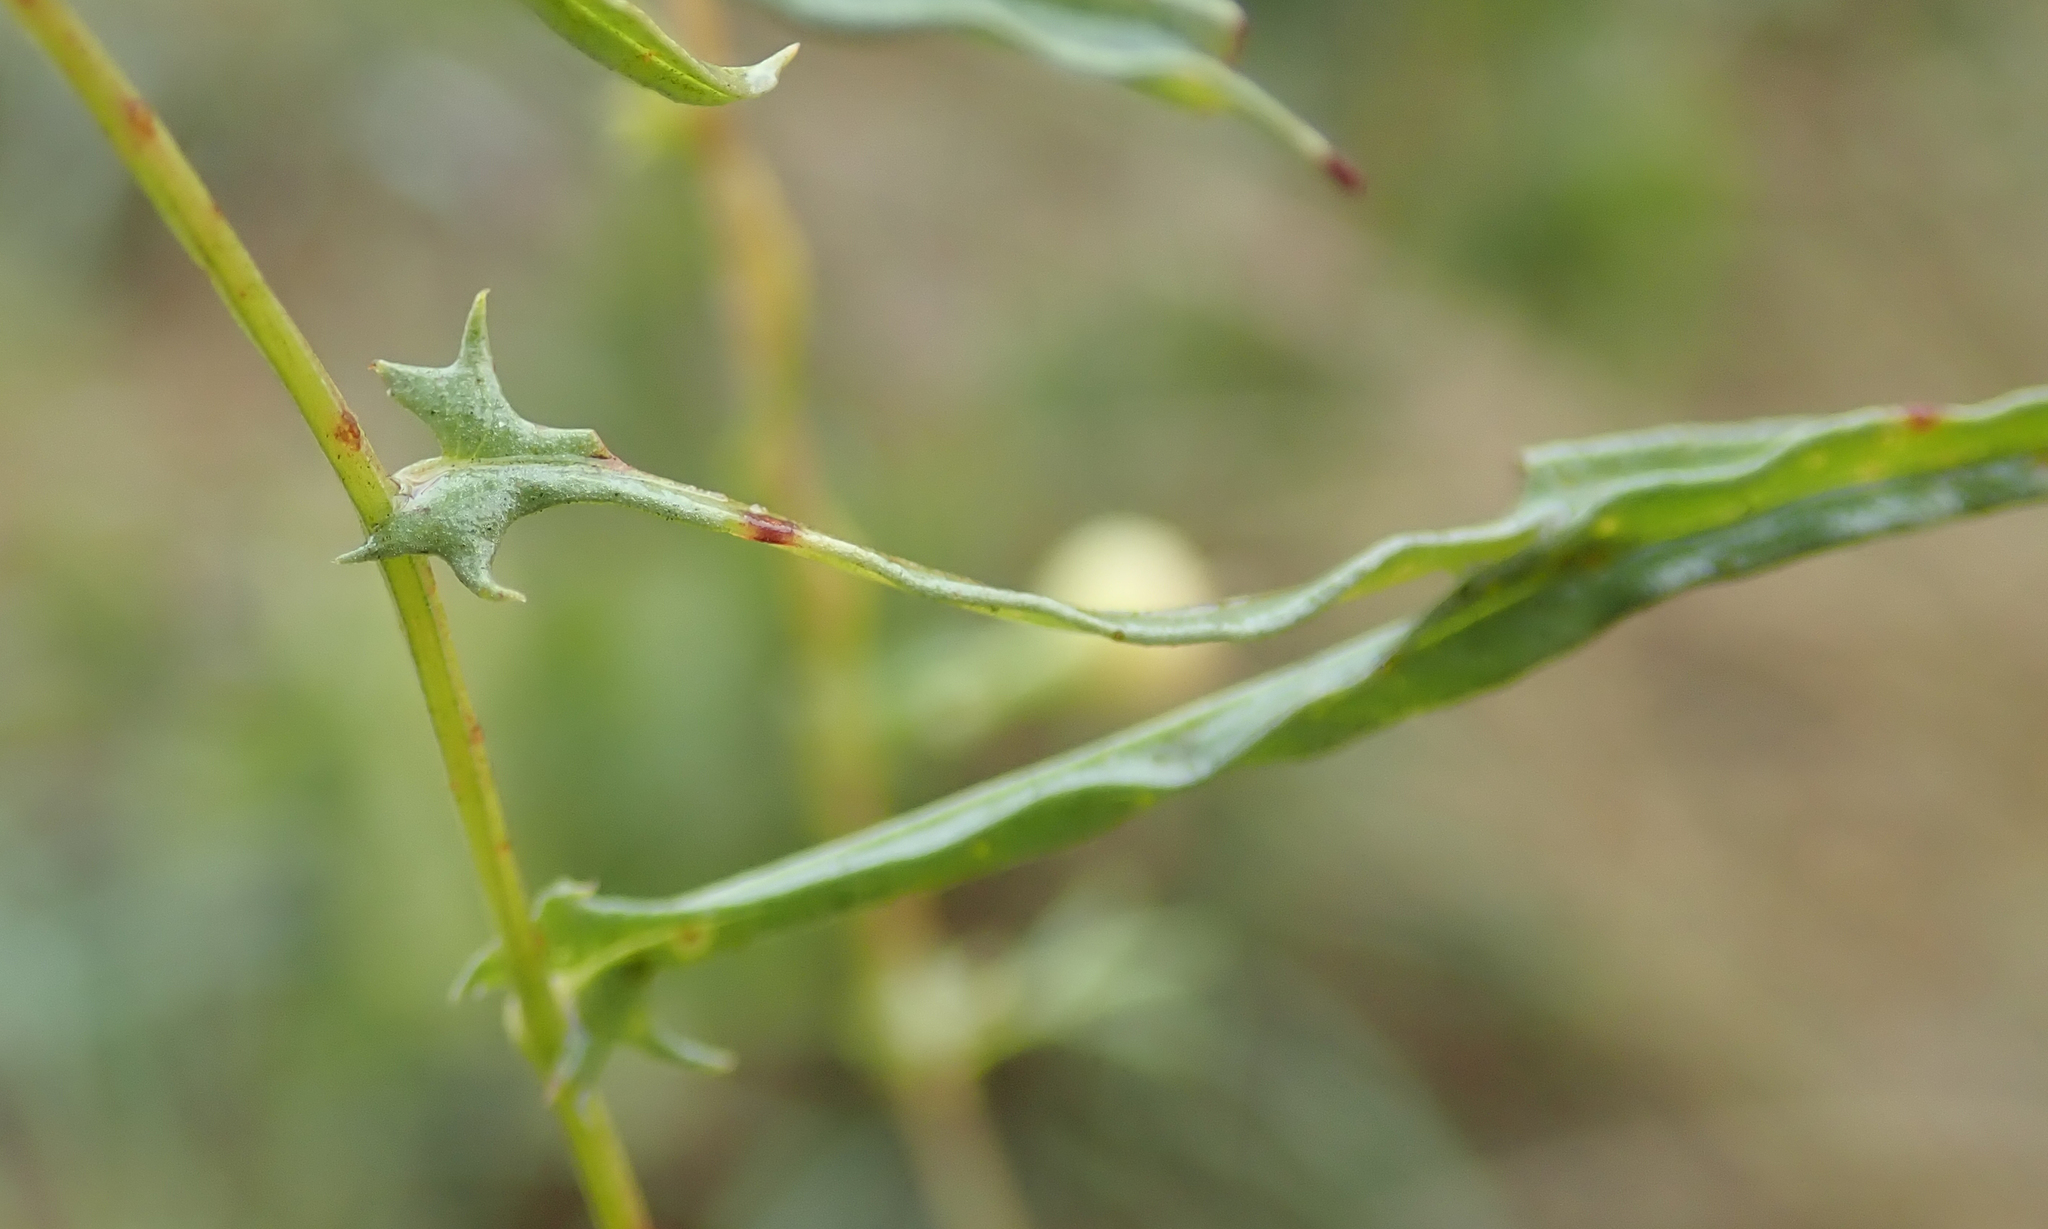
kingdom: Plantae
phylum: Tracheophyta
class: Magnoliopsida
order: Solanales
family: Convolvulaceae
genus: Xenostegia
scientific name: Xenostegia tridentata
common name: African morningvine
